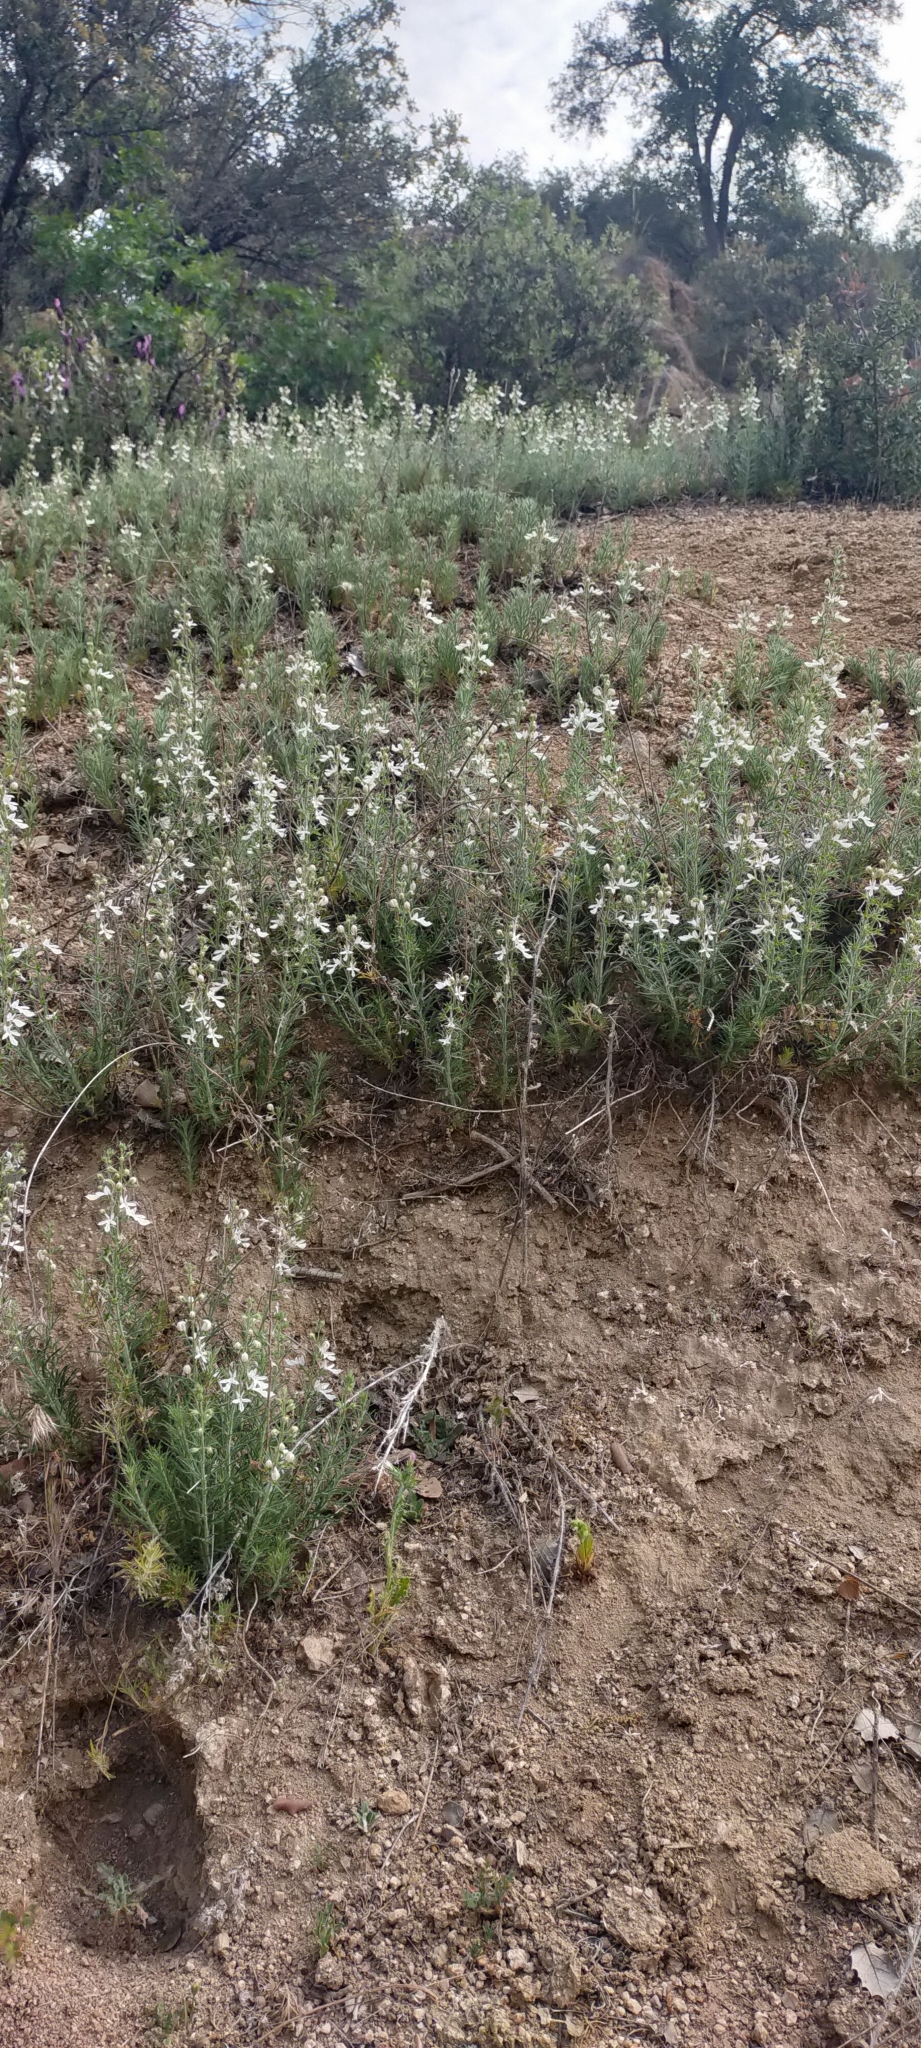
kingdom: Plantae
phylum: Tracheophyta
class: Magnoliopsida
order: Lamiales
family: Lamiaceae
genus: Teucrium
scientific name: Teucrium pseudochamaepitys
